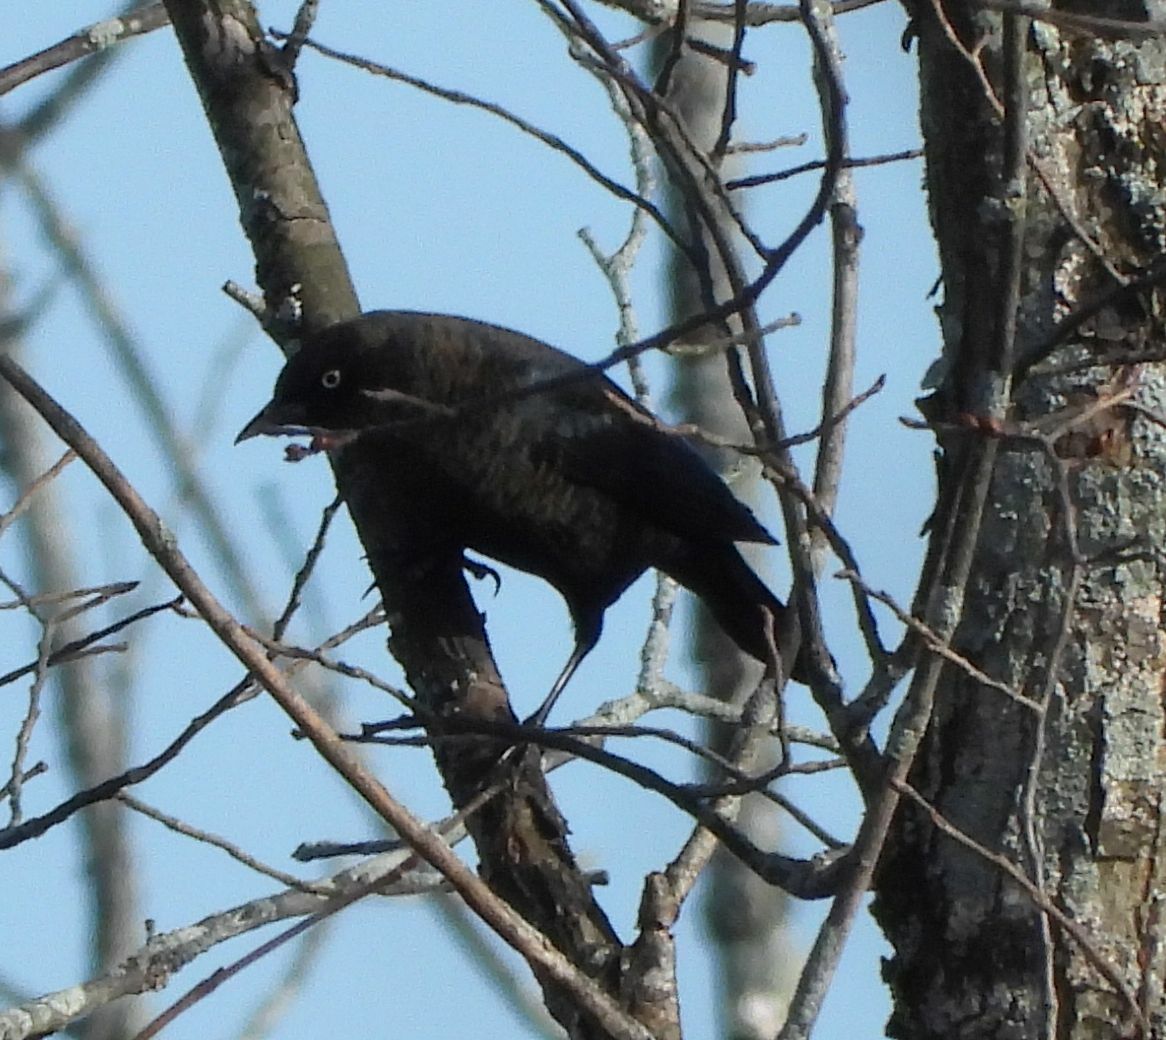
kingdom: Animalia
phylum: Chordata
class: Aves
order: Passeriformes
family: Icteridae
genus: Euphagus
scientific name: Euphagus carolinus
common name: Rusty blackbird
